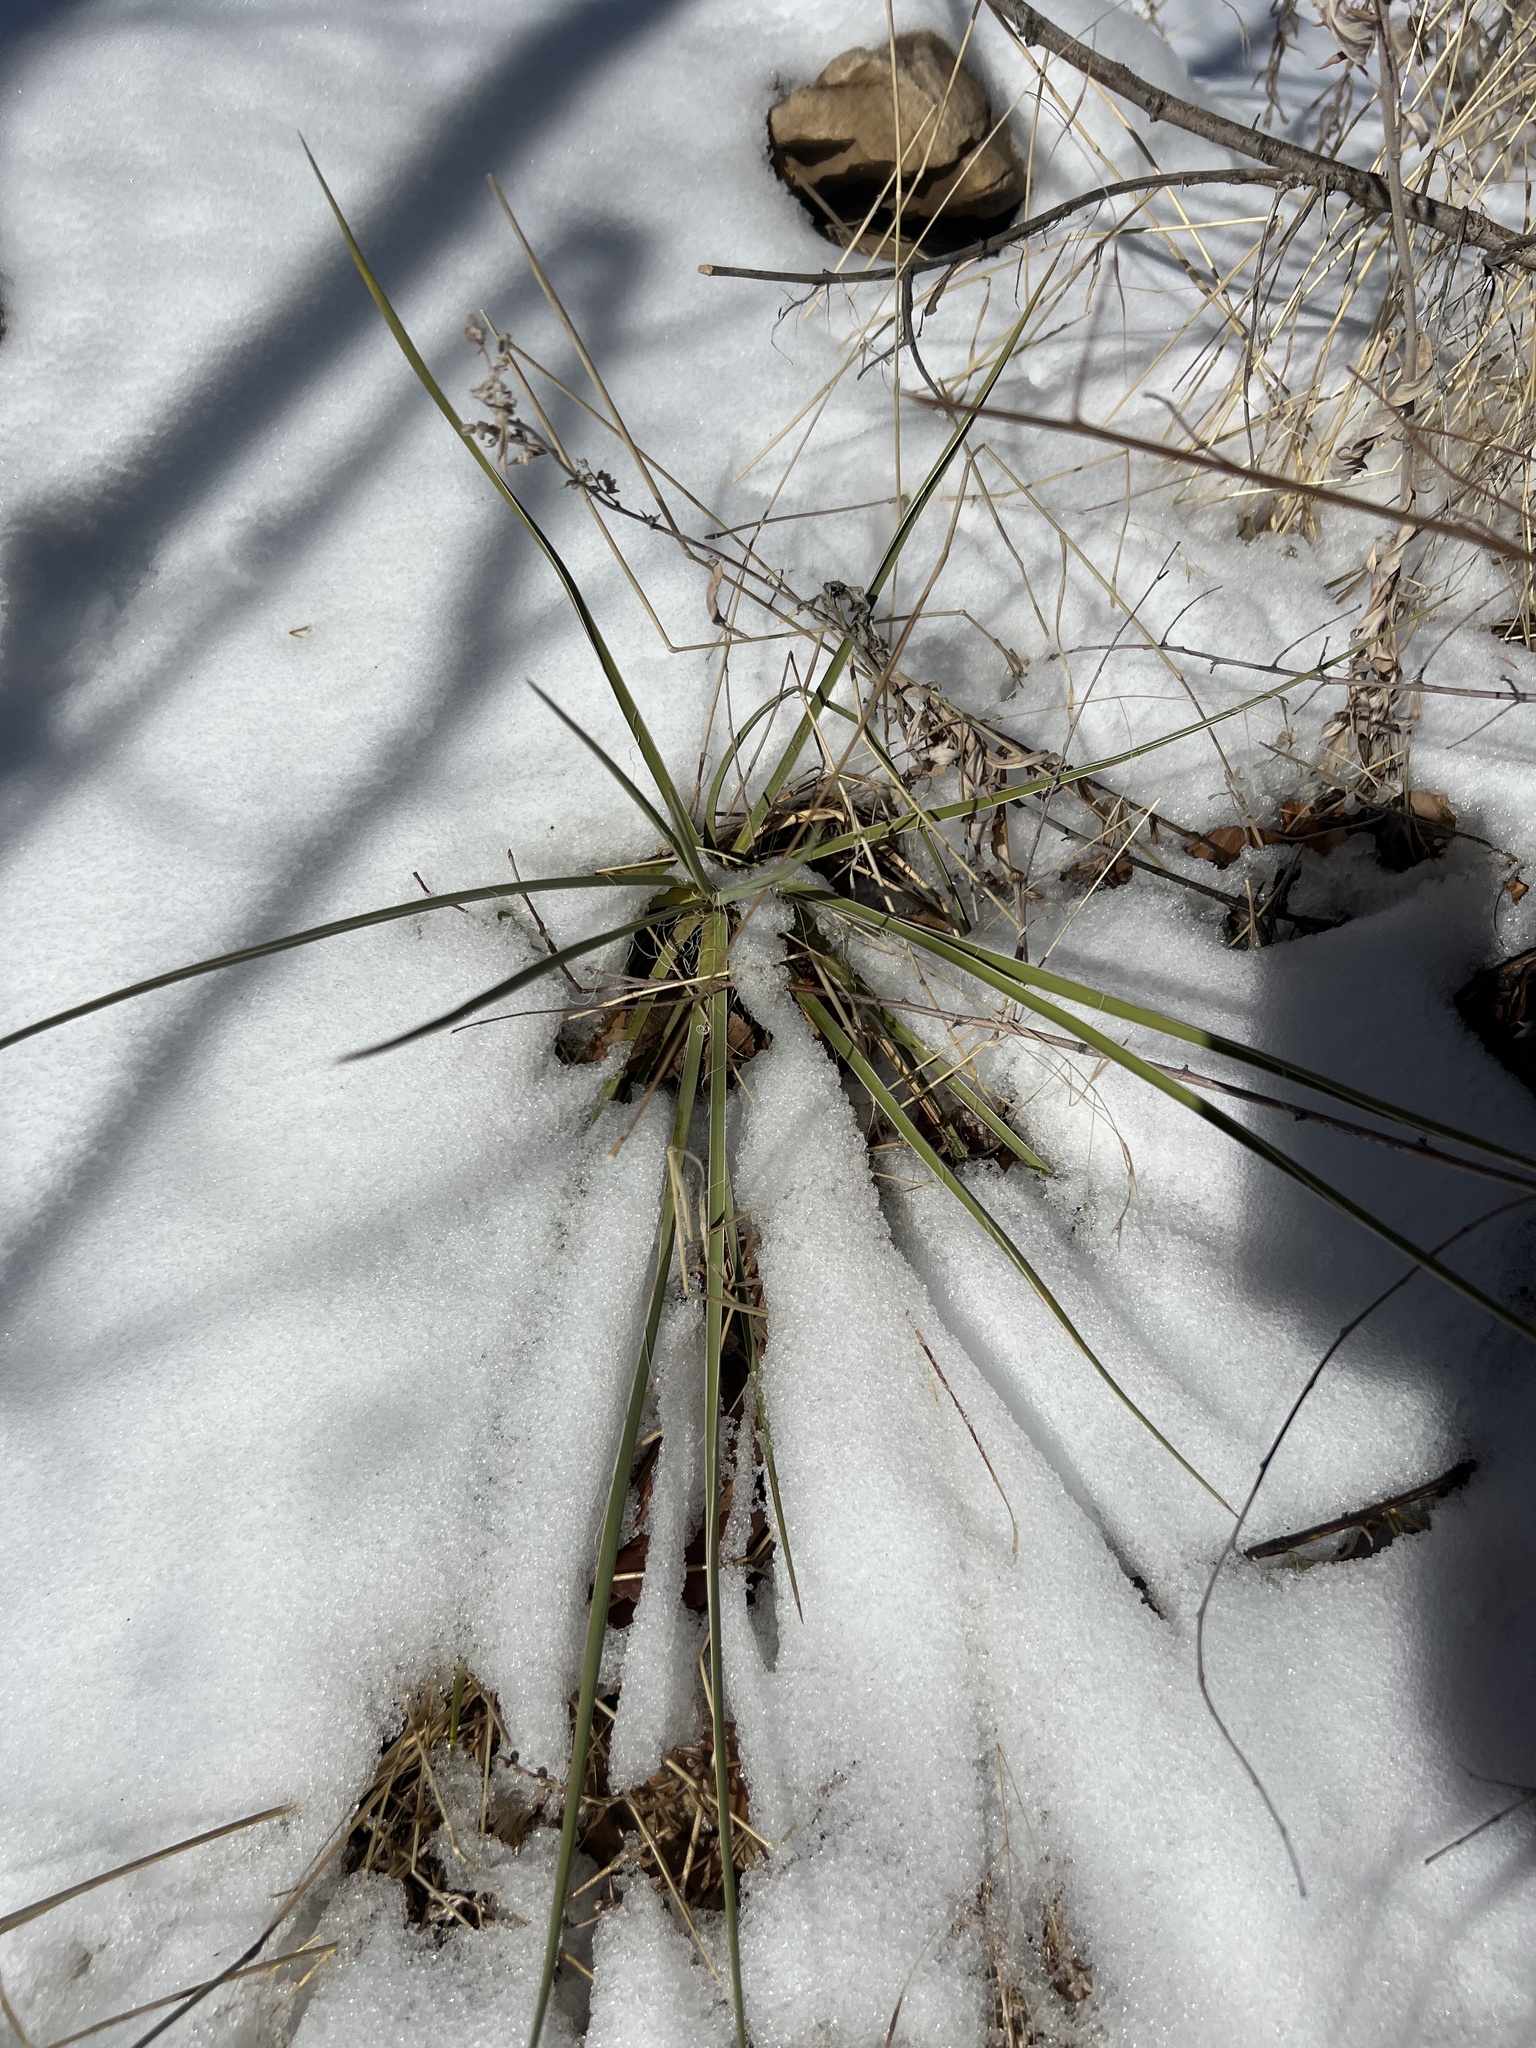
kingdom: Plantae
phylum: Tracheophyta
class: Liliopsida
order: Asparagales
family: Asparagaceae
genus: Yucca
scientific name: Yucca glauca
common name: Great plains yucca
